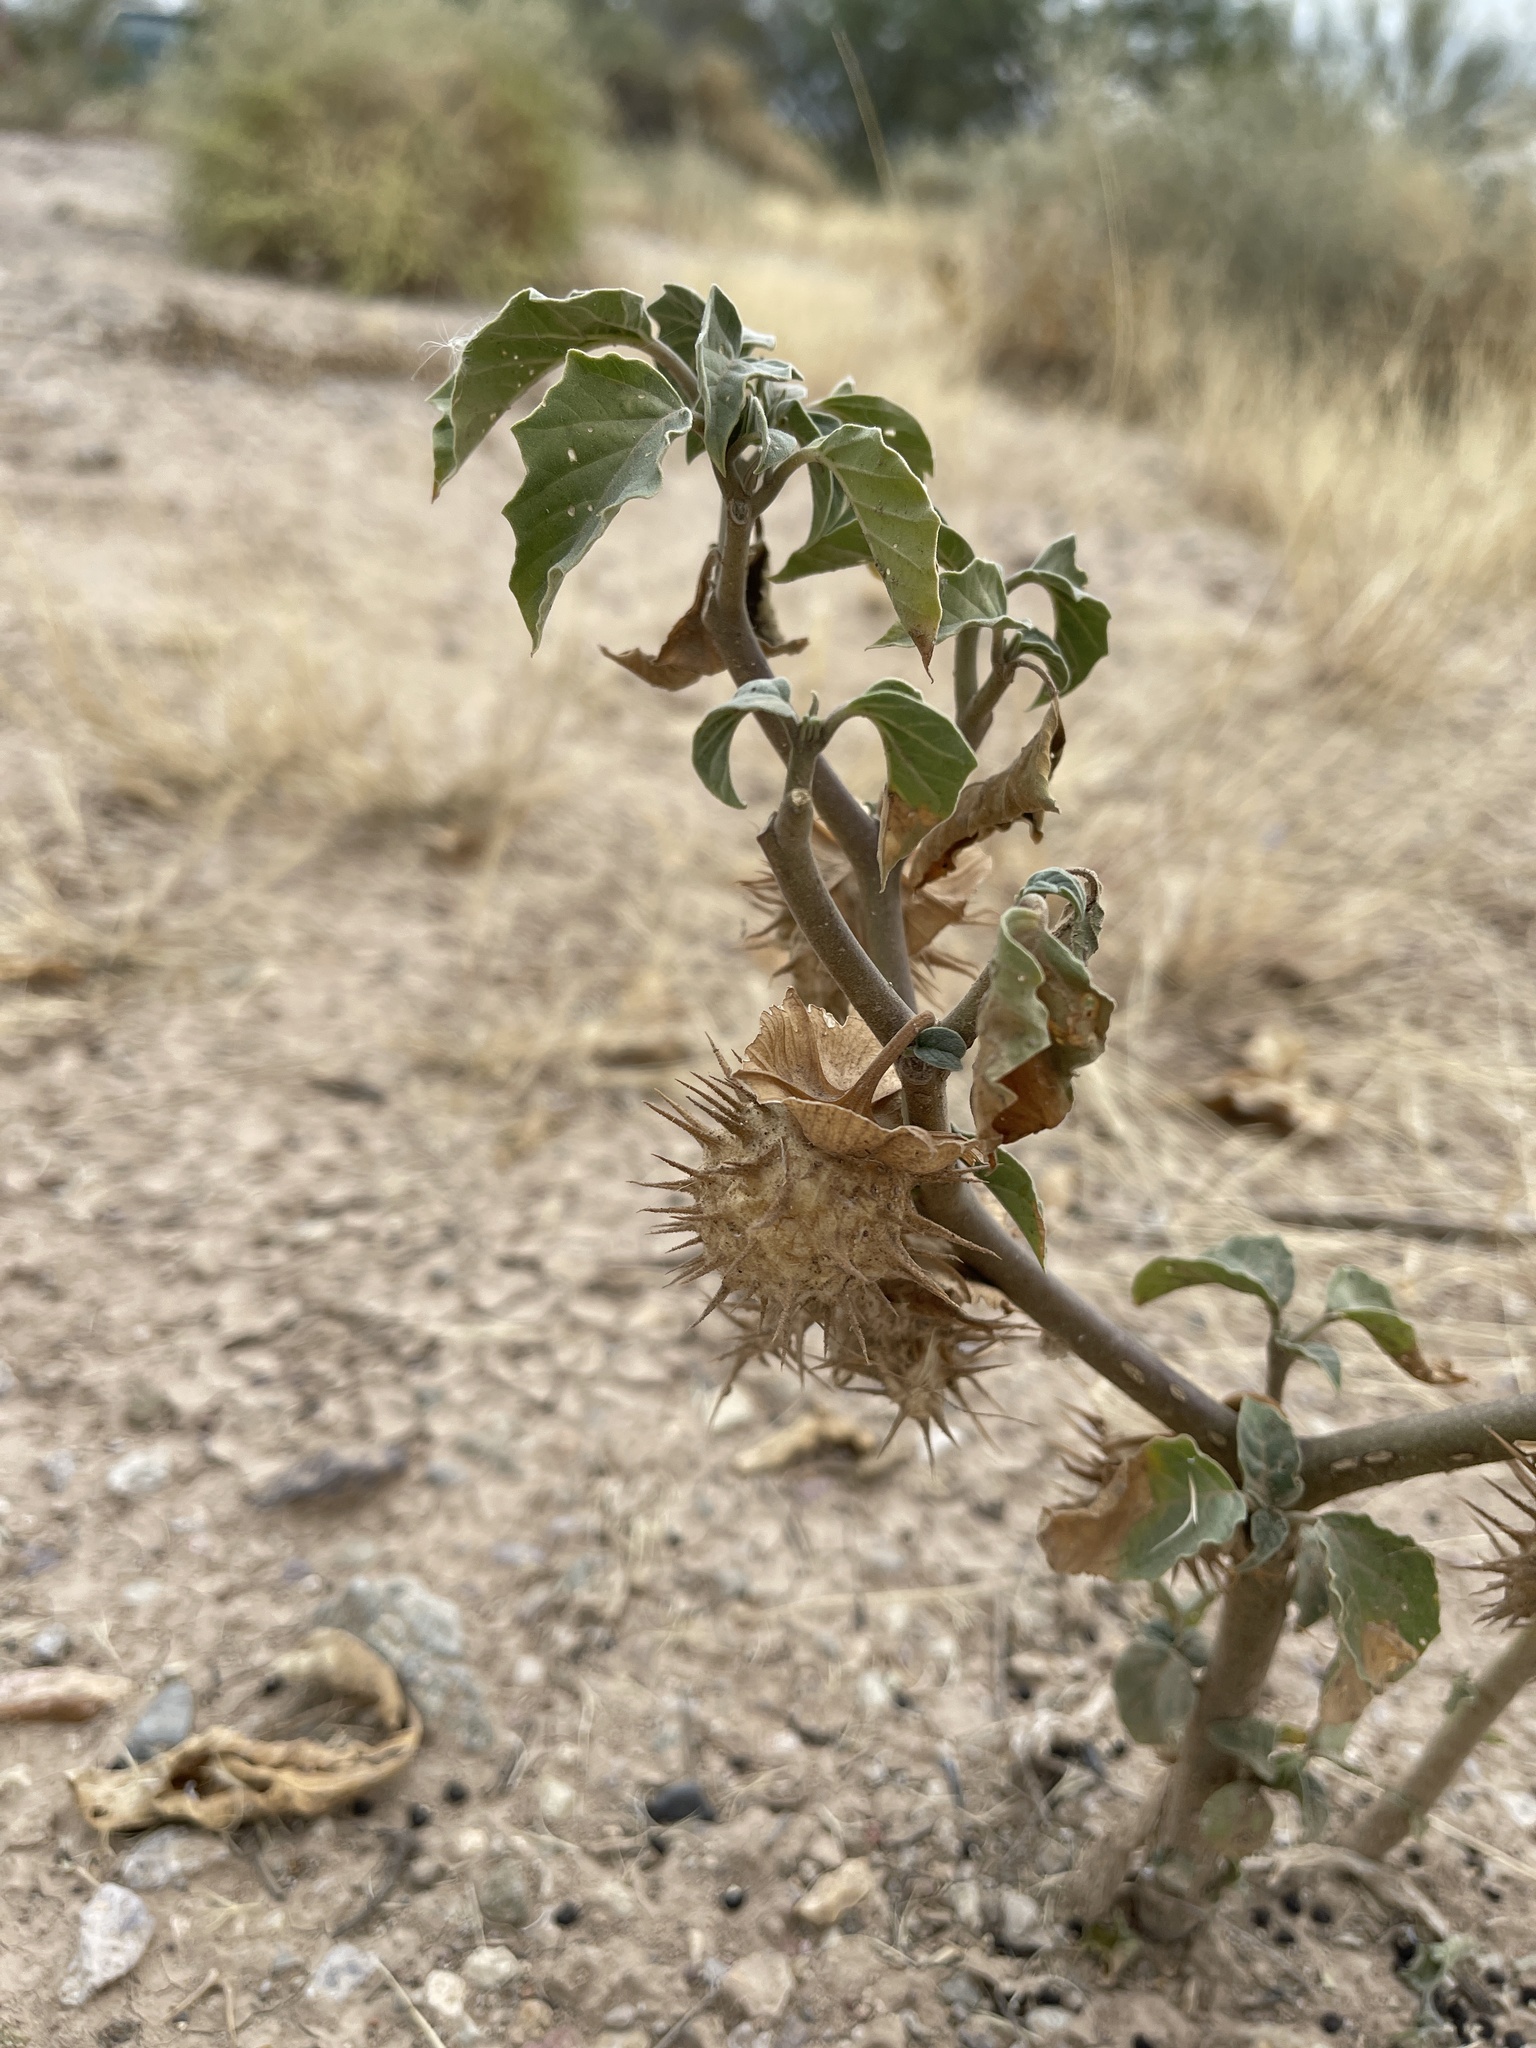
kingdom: Plantae
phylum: Tracheophyta
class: Magnoliopsida
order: Solanales
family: Solanaceae
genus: Datura
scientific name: Datura discolor
